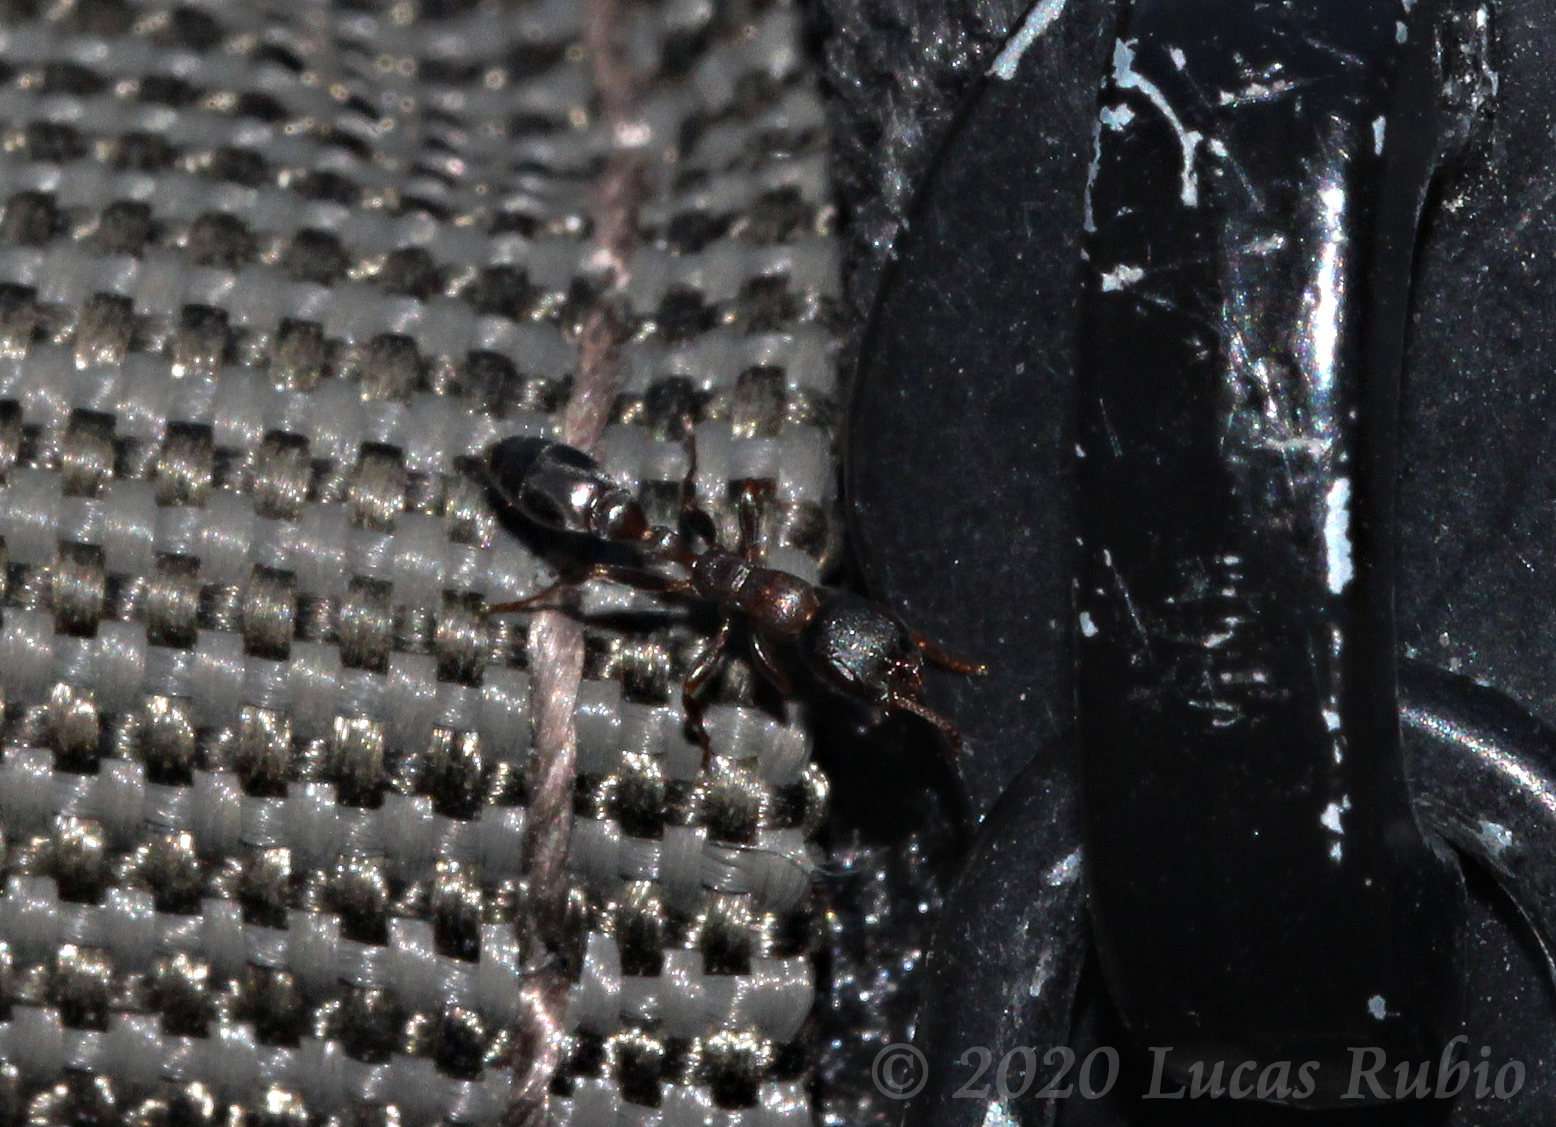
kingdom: Animalia
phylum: Arthropoda
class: Insecta
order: Hymenoptera
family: Formicidae
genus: Pseudomyrmex
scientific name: Pseudomyrmex phyllophilus
